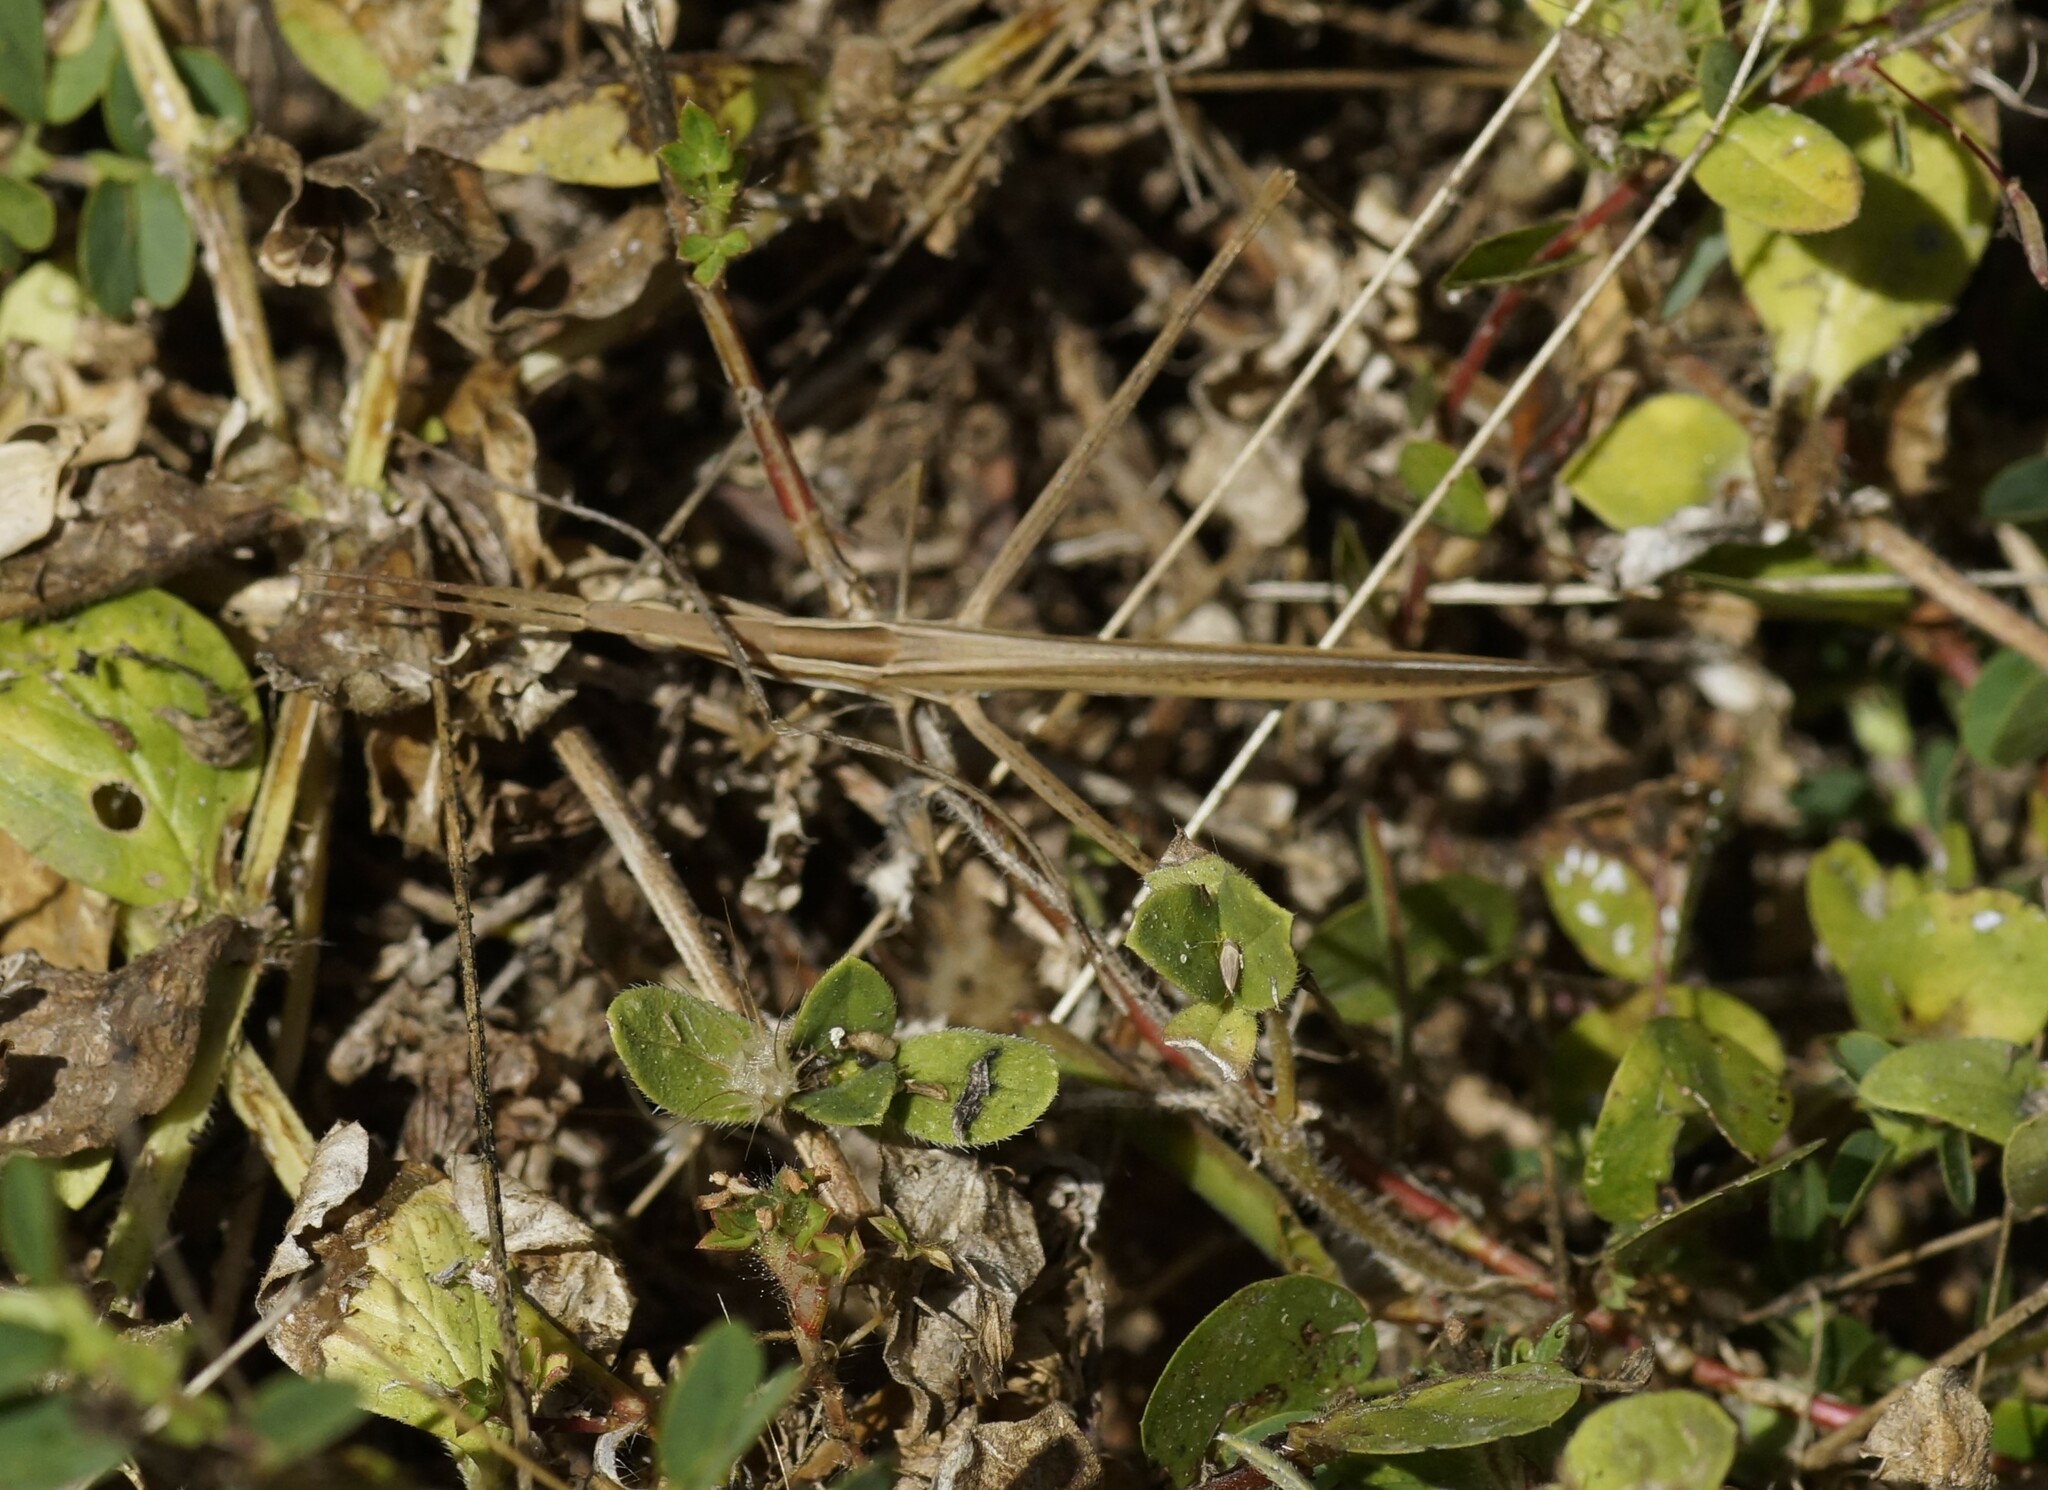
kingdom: Animalia
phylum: Arthropoda
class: Insecta
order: Orthoptera
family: Acrididae
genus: Acrida
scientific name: Acrida conica
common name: Giant green slantface
